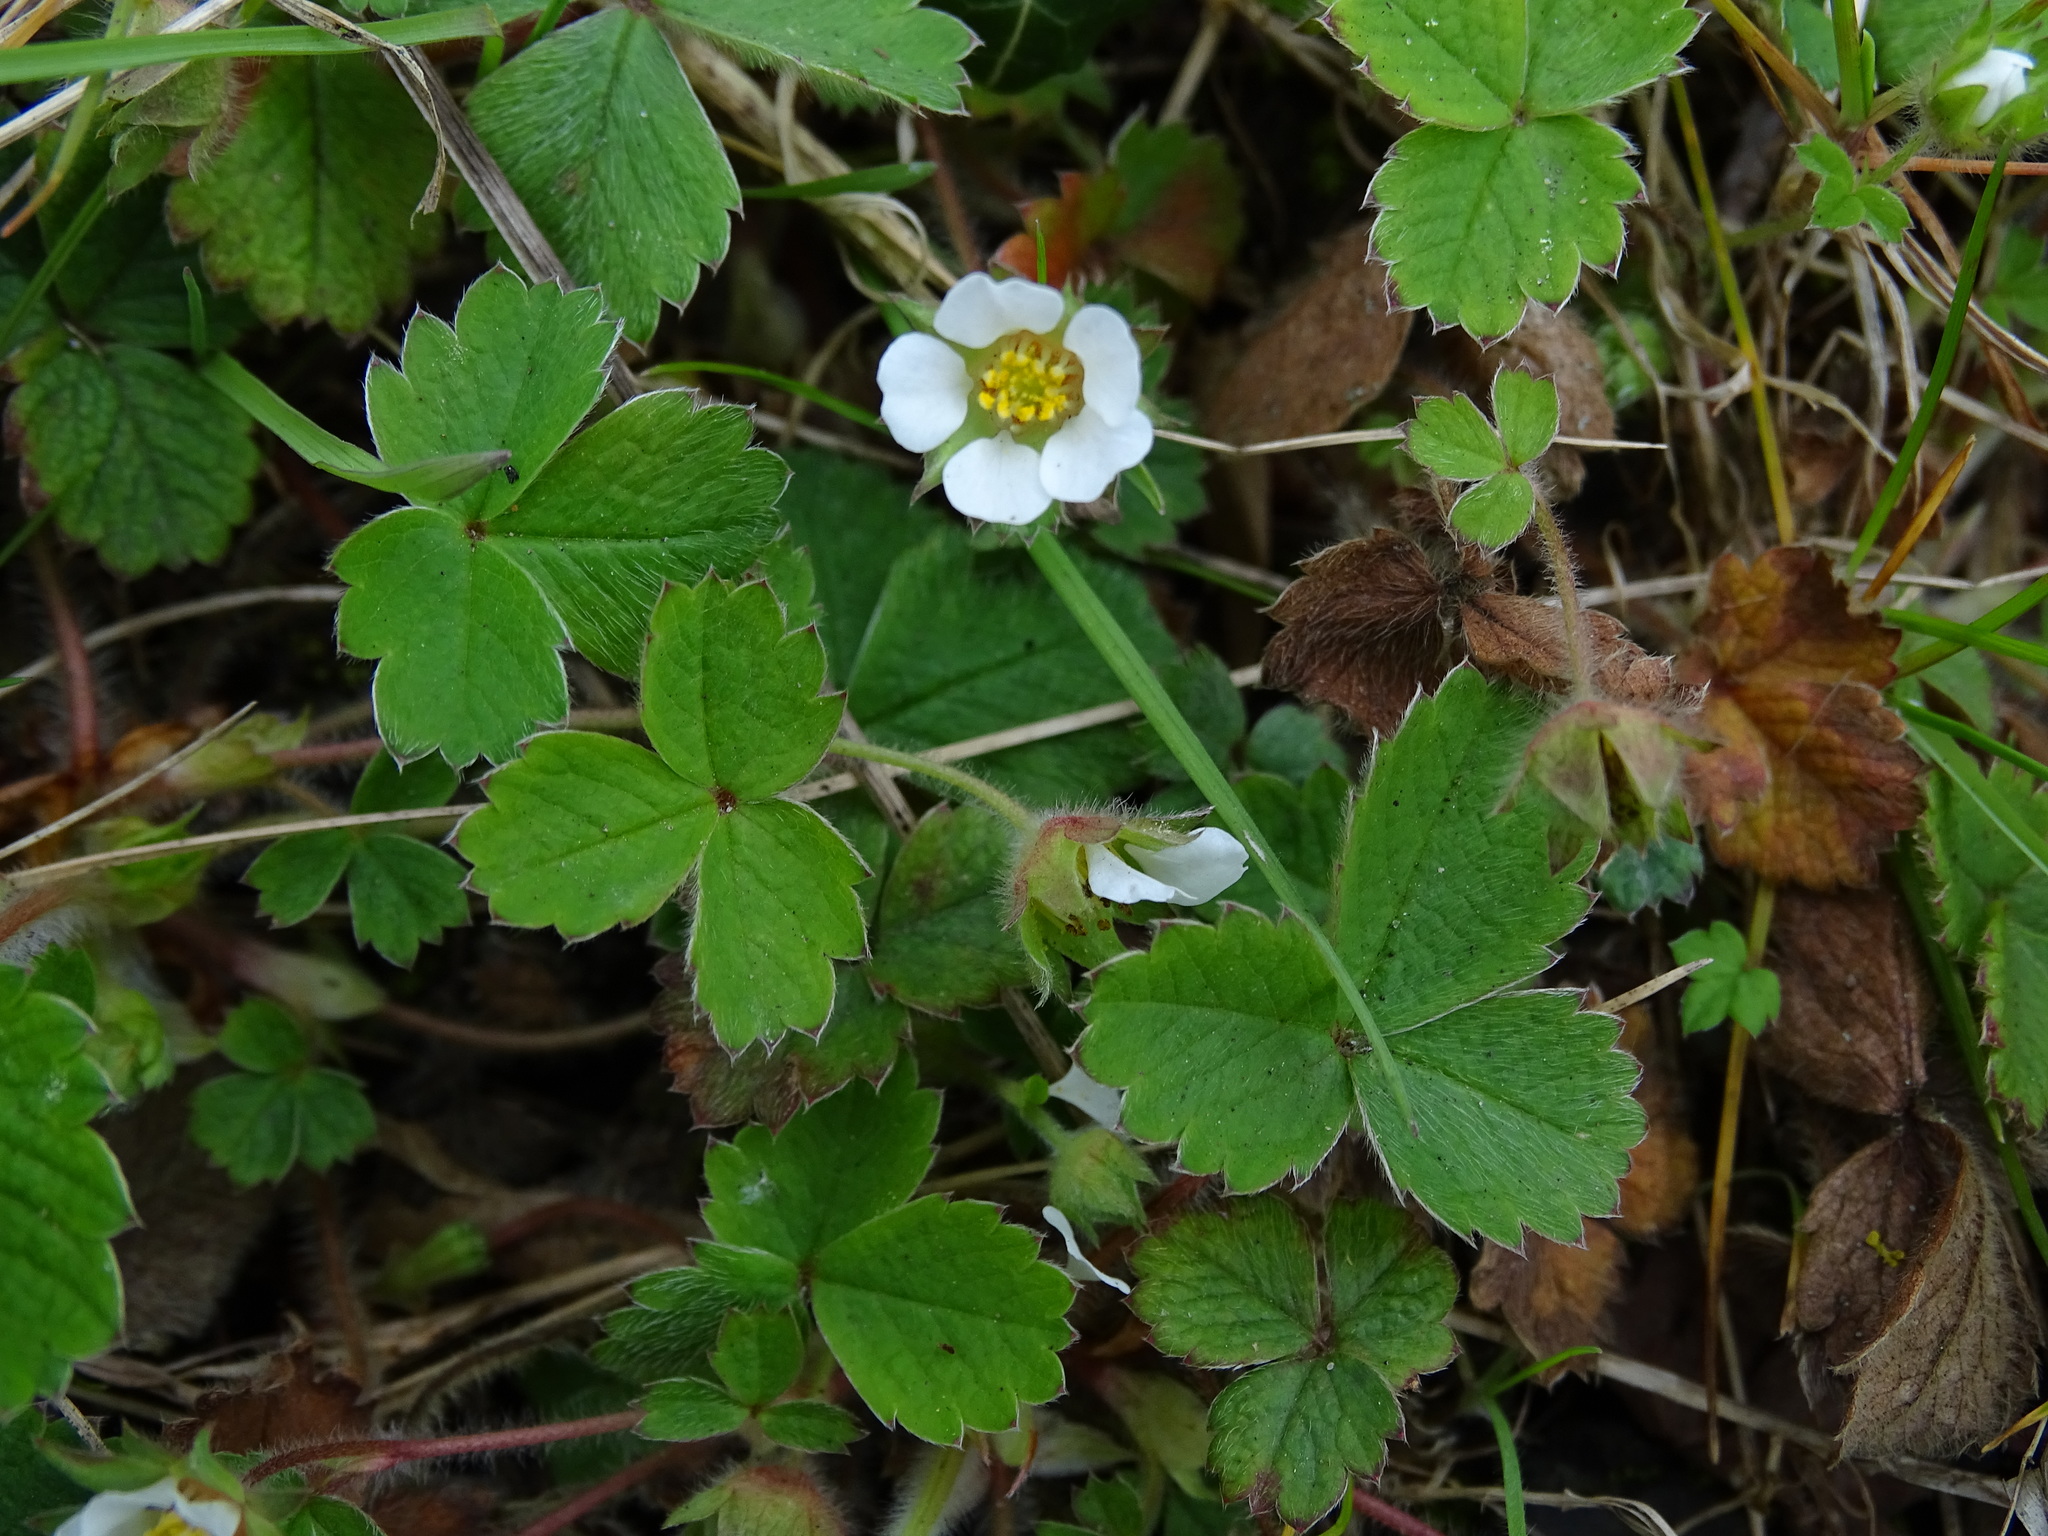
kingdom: Plantae
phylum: Tracheophyta
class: Magnoliopsida
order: Rosales
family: Rosaceae
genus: Potentilla
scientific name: Potentilla sterilis
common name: Barren strawberry
